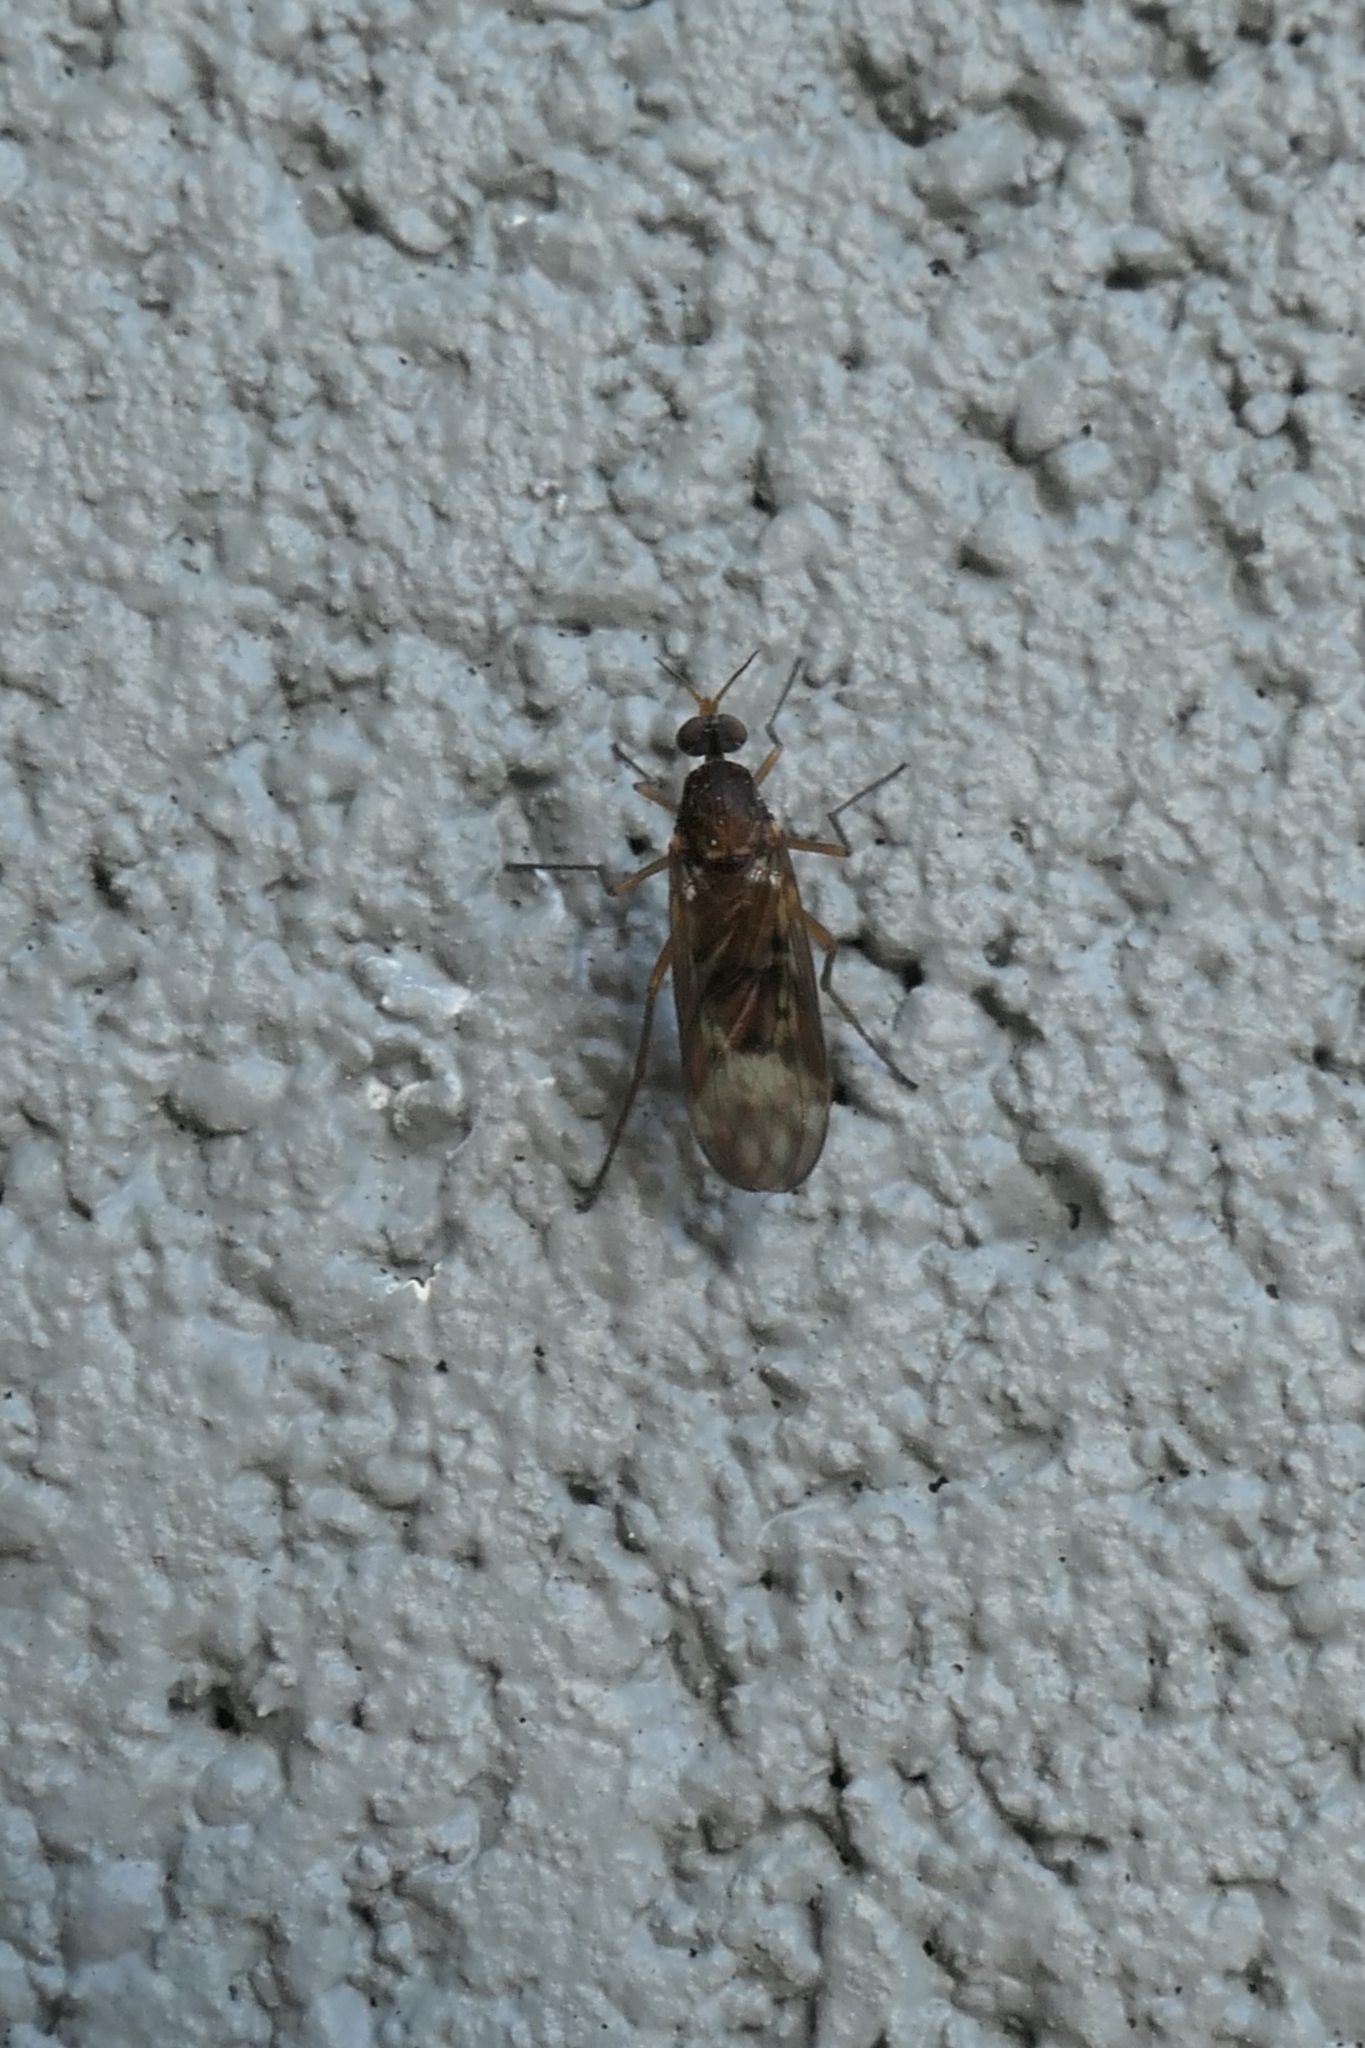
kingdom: Animalia
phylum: Arthropoda
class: Insecta
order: Diptera
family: Anisopodidae
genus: Sylvicola
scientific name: Sylvicola neozelandicus
